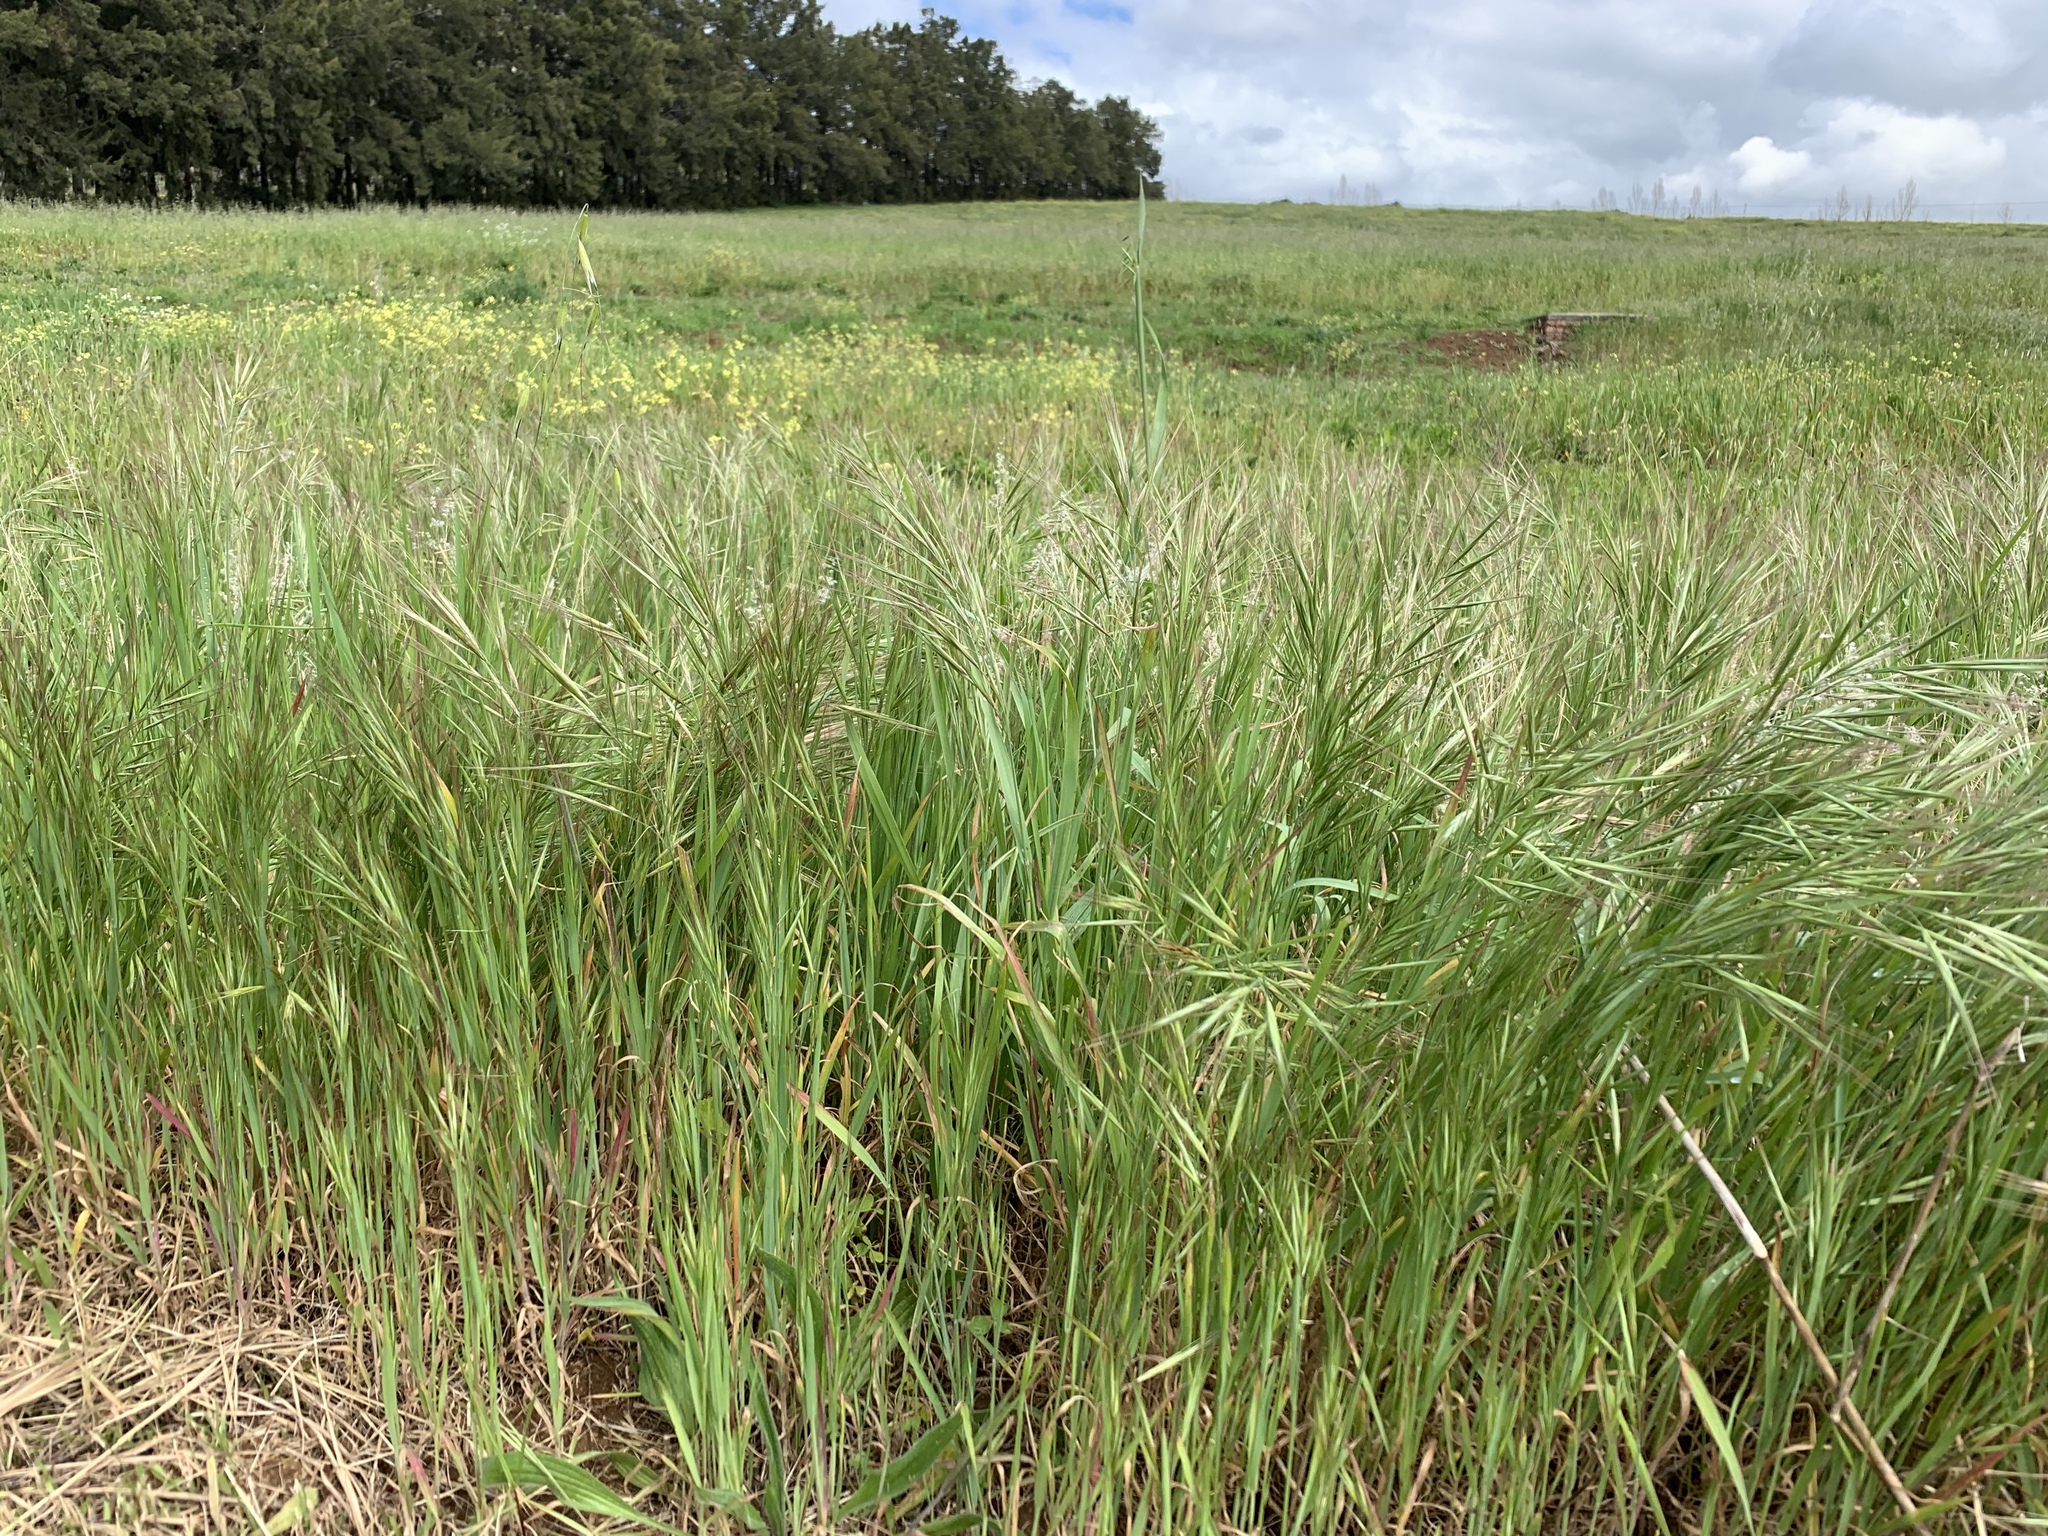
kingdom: Plantae
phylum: Tracheophyta
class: Liliopsida
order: Poales
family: Poaceae
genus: Bromus
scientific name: Bromus diandrus
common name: Ripgut brome
